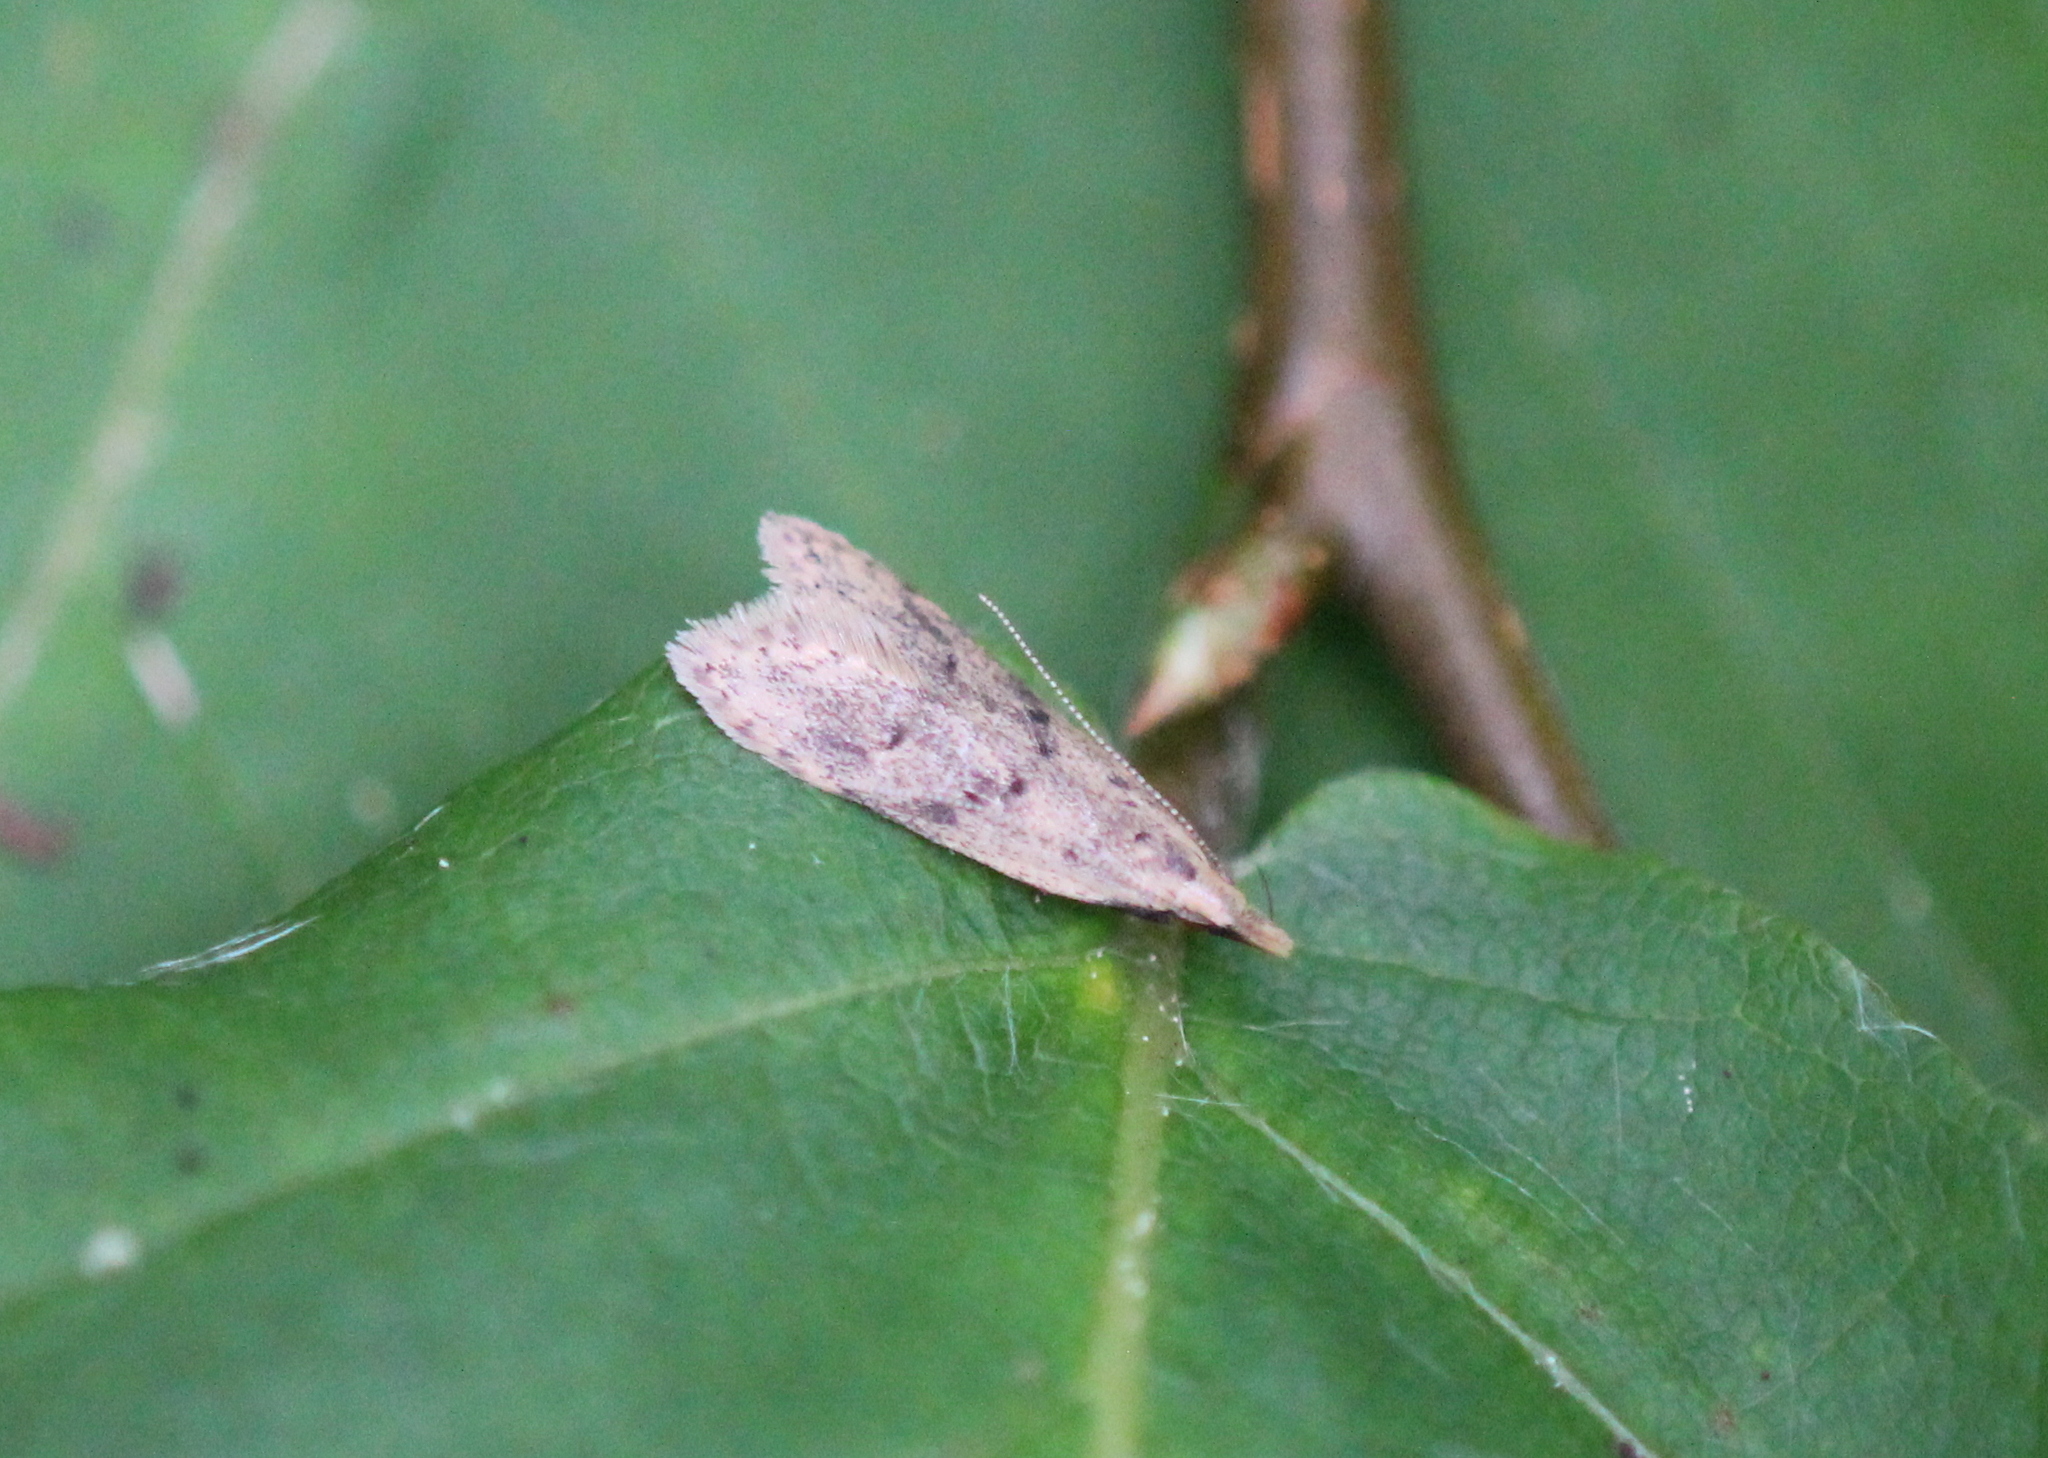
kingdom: Animalia
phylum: Arthropoda
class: Insecta
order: Lepidoptera
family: Gelechiidae
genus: Dichomeris
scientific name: Dichomeris punctipennella
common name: Many-spotted dichomeris moth
